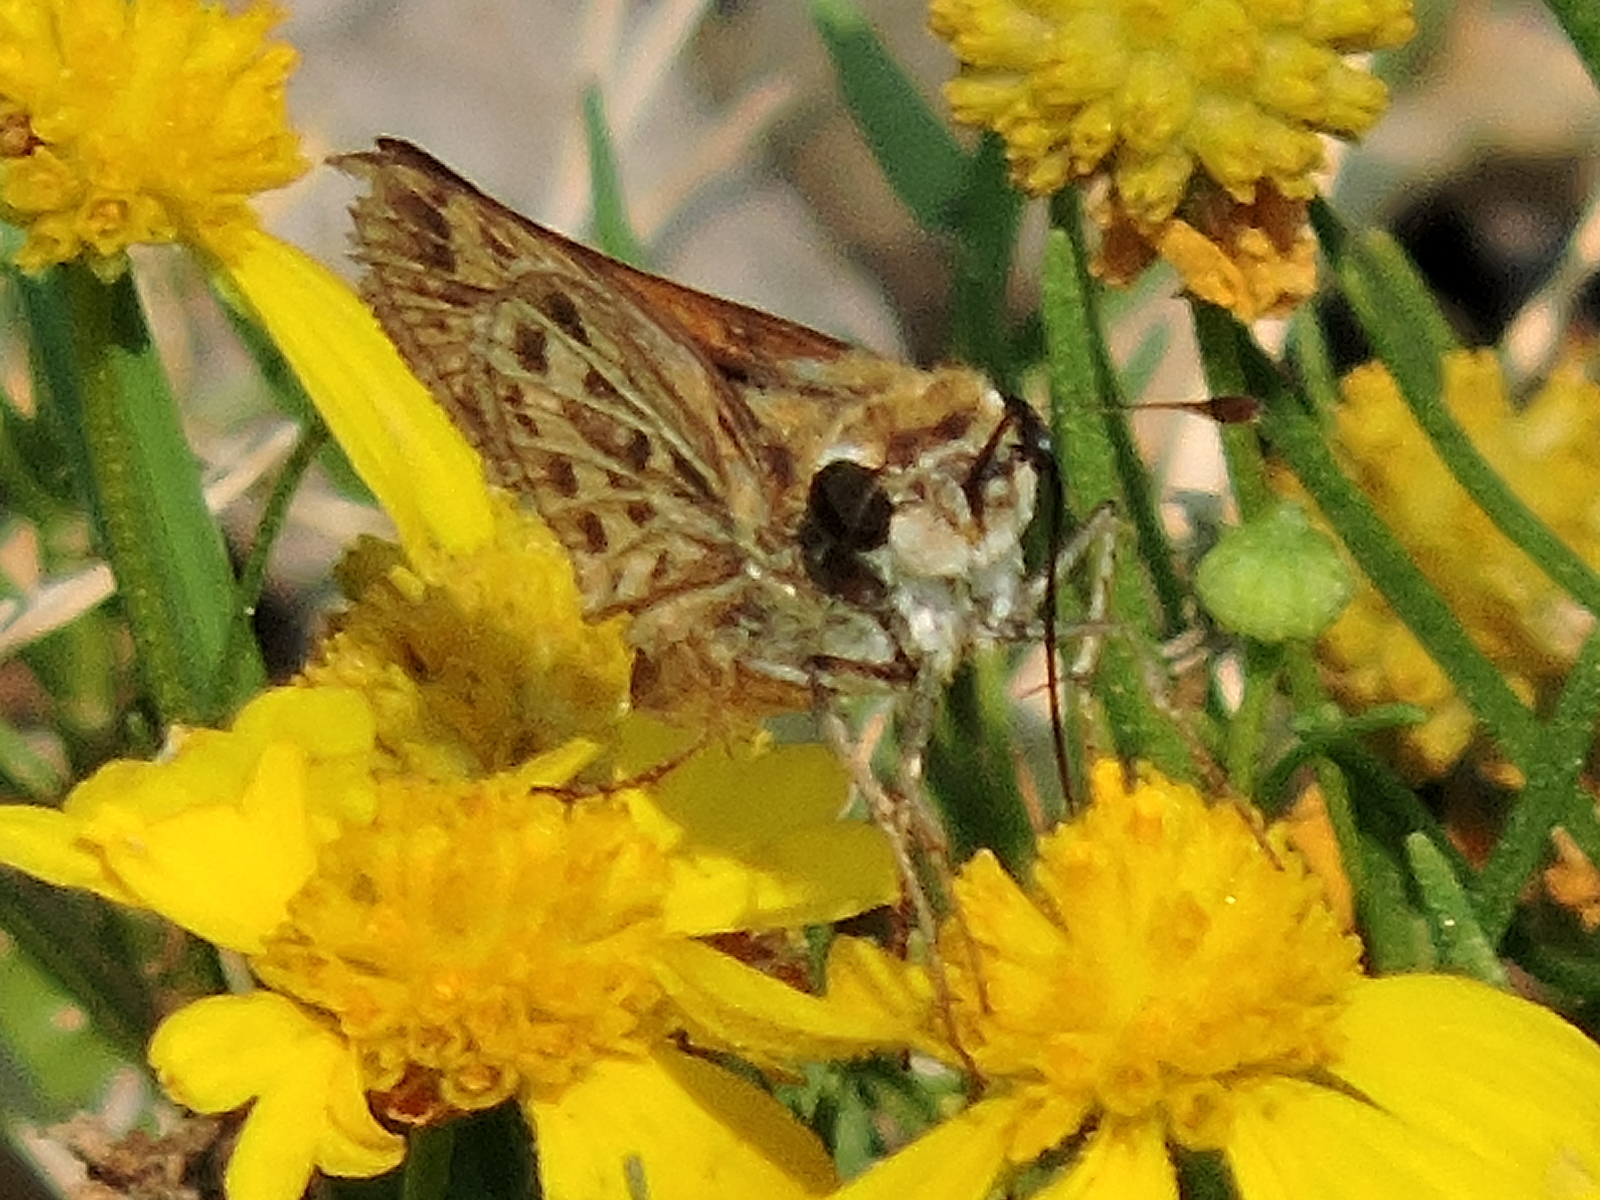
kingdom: Animalia
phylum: Arthropoda
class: Insecta
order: Lepidoptera
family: Hesperiidae
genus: Hylephila
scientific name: Hylephila phyleus
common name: Fiery skipper
